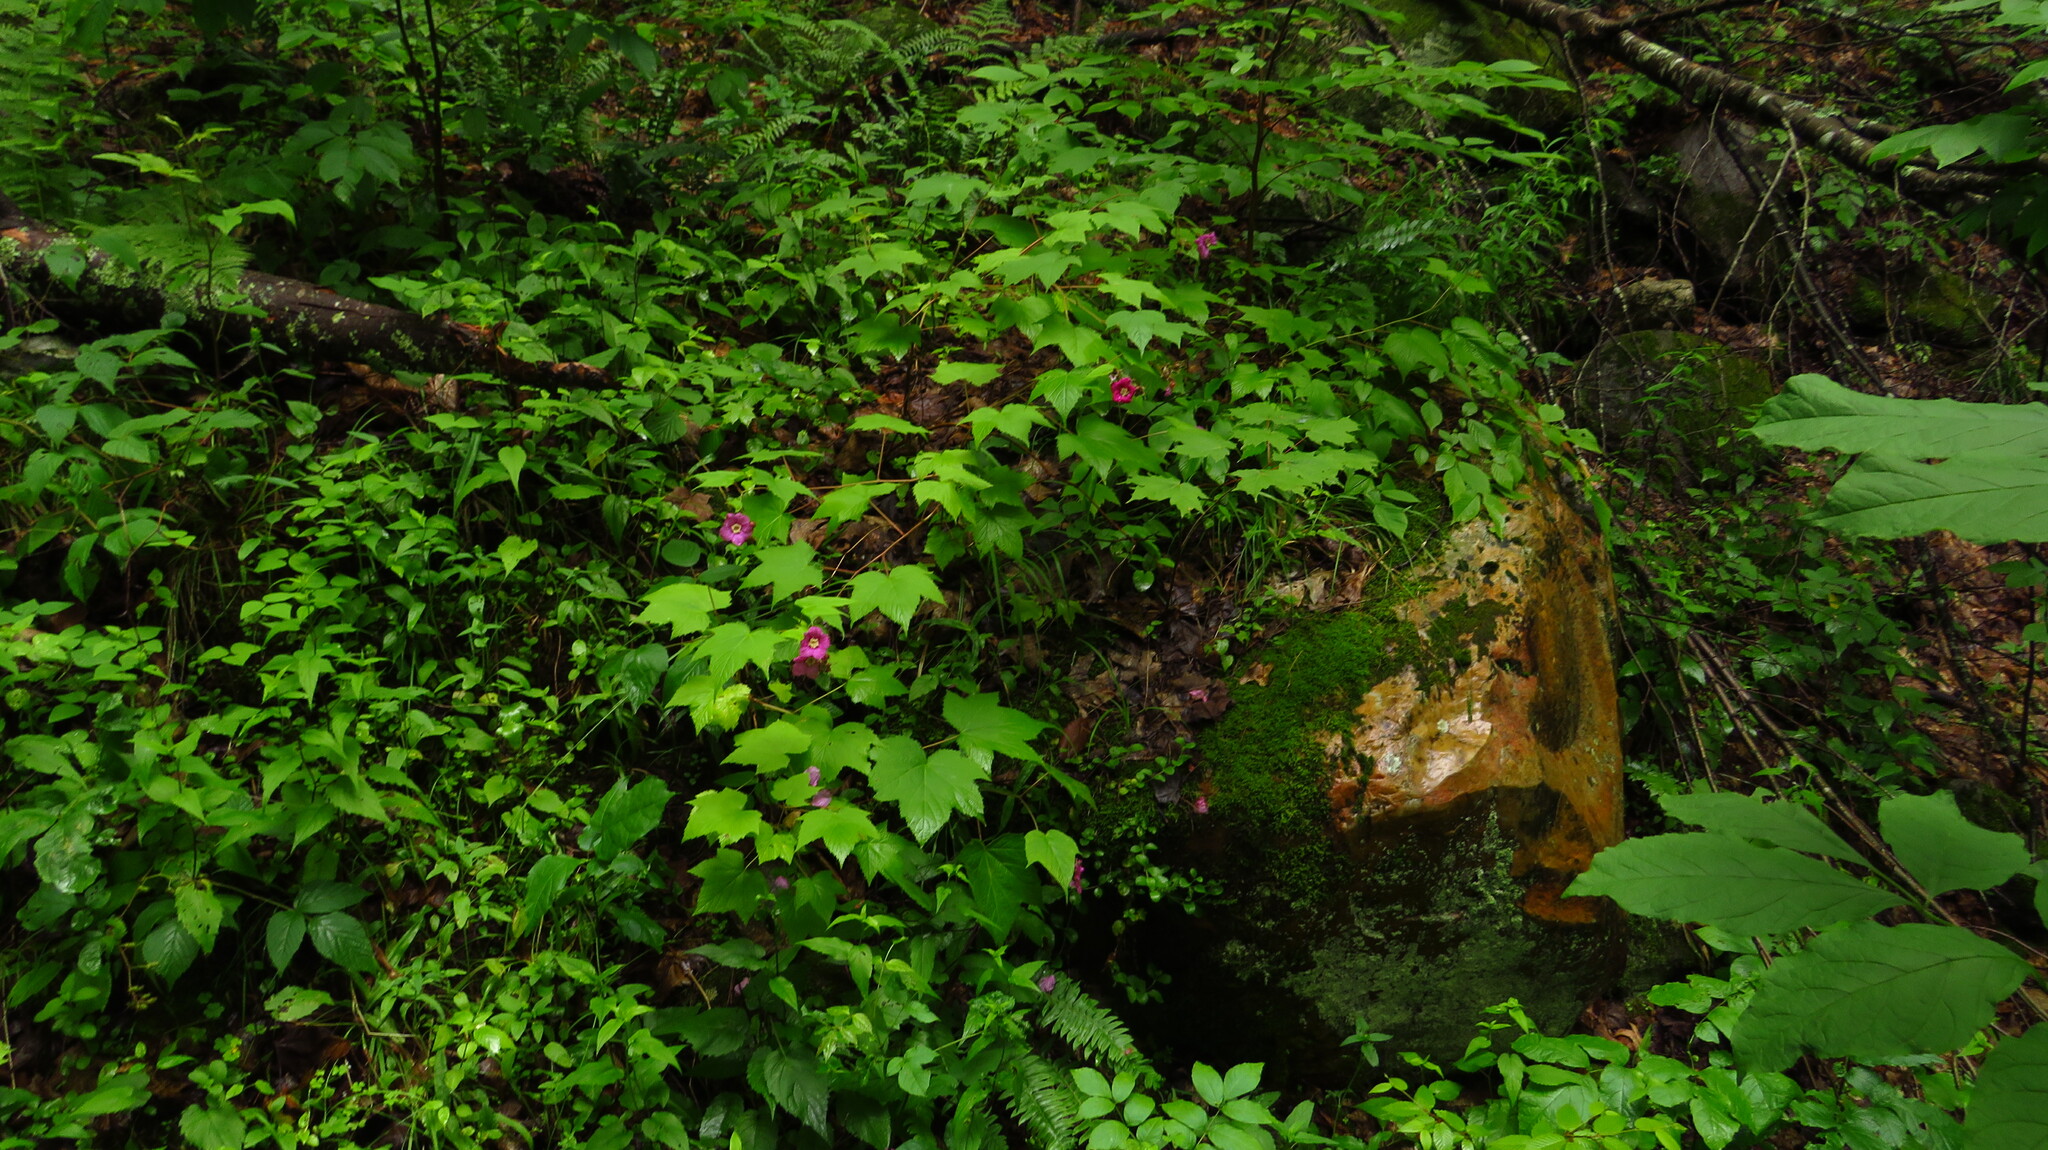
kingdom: Plantae
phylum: Tracheophyta
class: Magnoliopsida
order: Rosales
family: Rosaceae
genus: Rubus
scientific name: Rubus odoratus
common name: Purple-flowered raspberry
